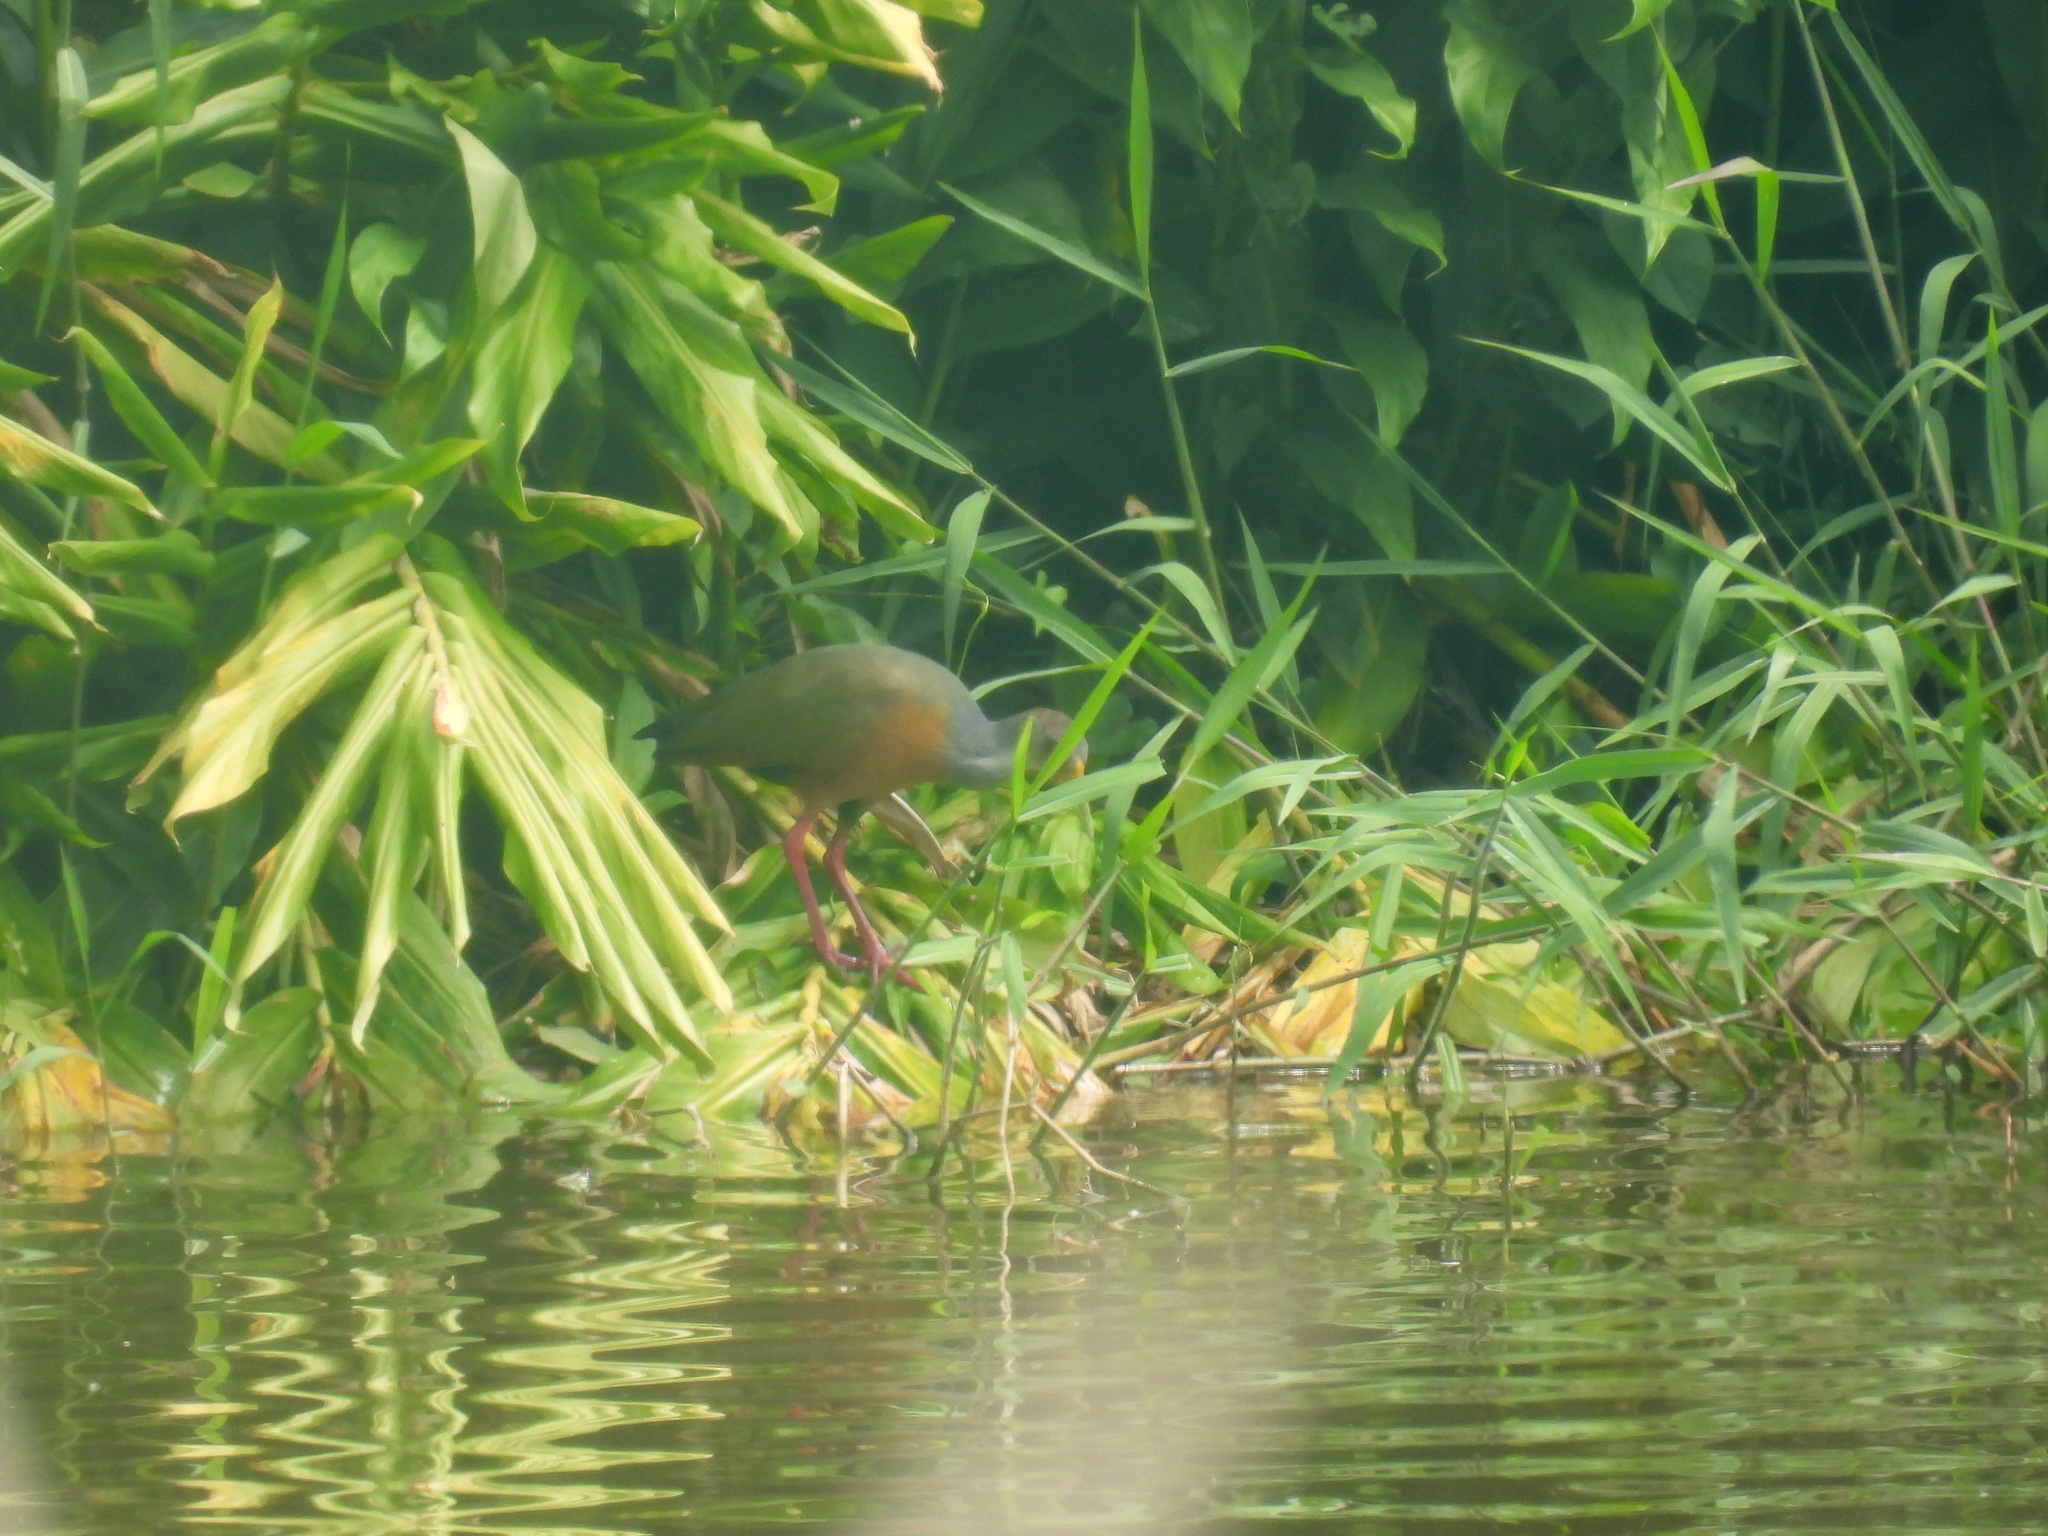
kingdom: Animalia
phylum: Chordata
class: Aves
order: Gruiformes
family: Rallidae
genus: Aramides
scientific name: Aramides cajanea
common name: Gray-necked wood-rail
